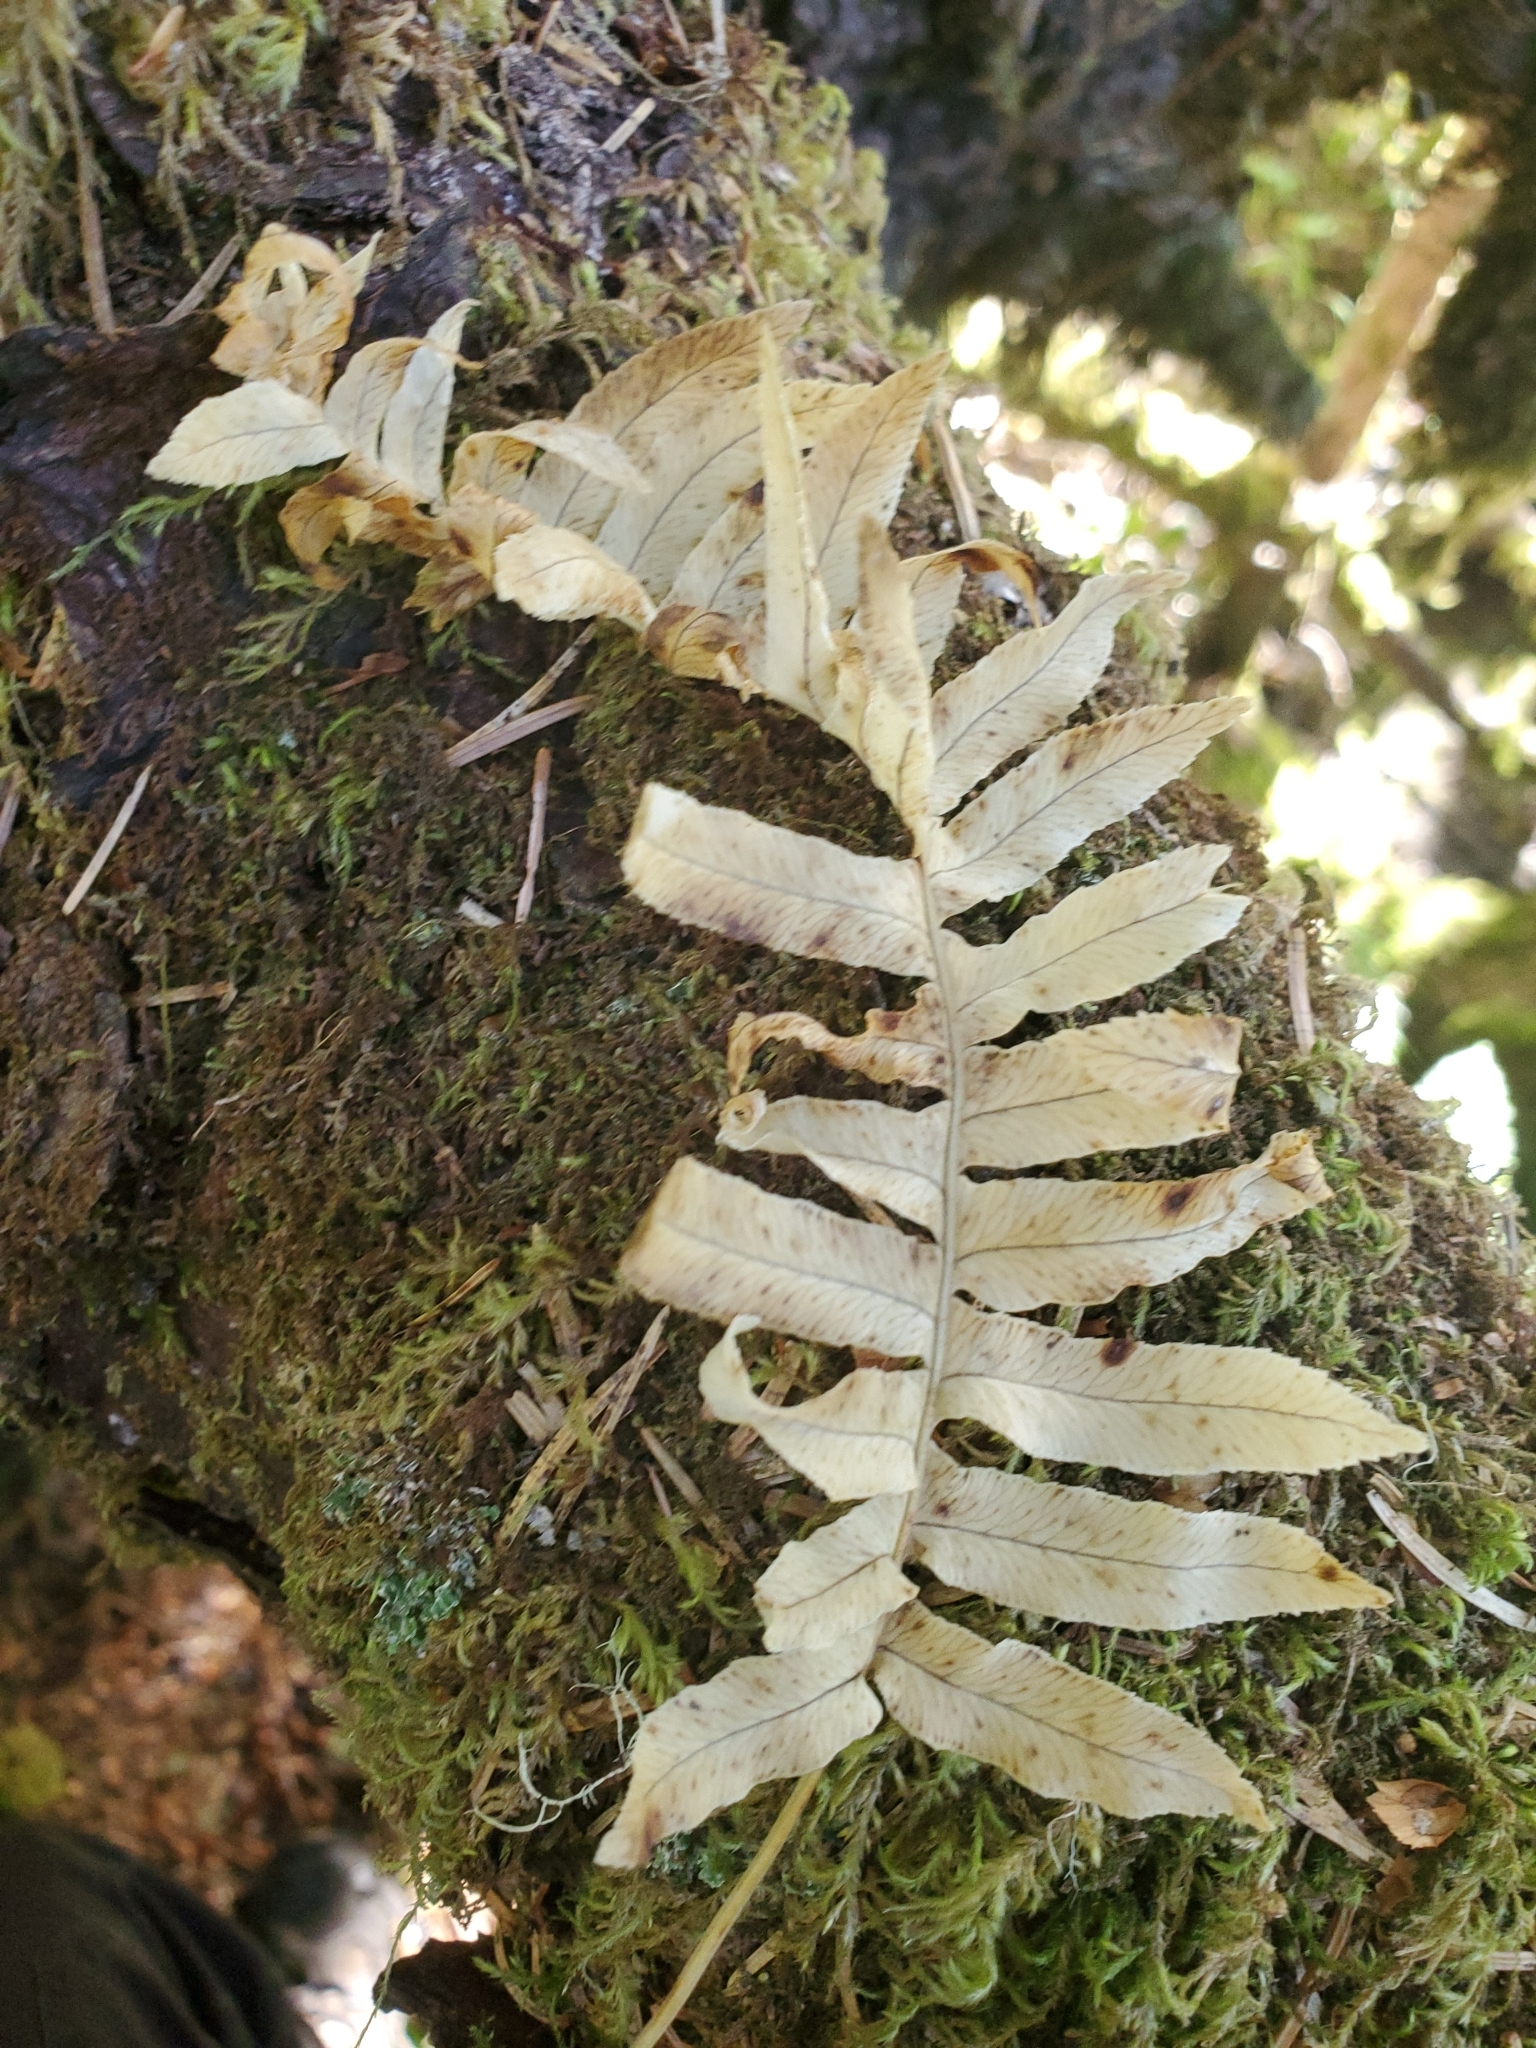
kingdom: Plantae
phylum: Tracheophyta
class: Polypodiopsida
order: Polypodiales
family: Polypodiaceae
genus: Polypodium
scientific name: Polypodium glycyrrhiza
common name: Licorice fern
